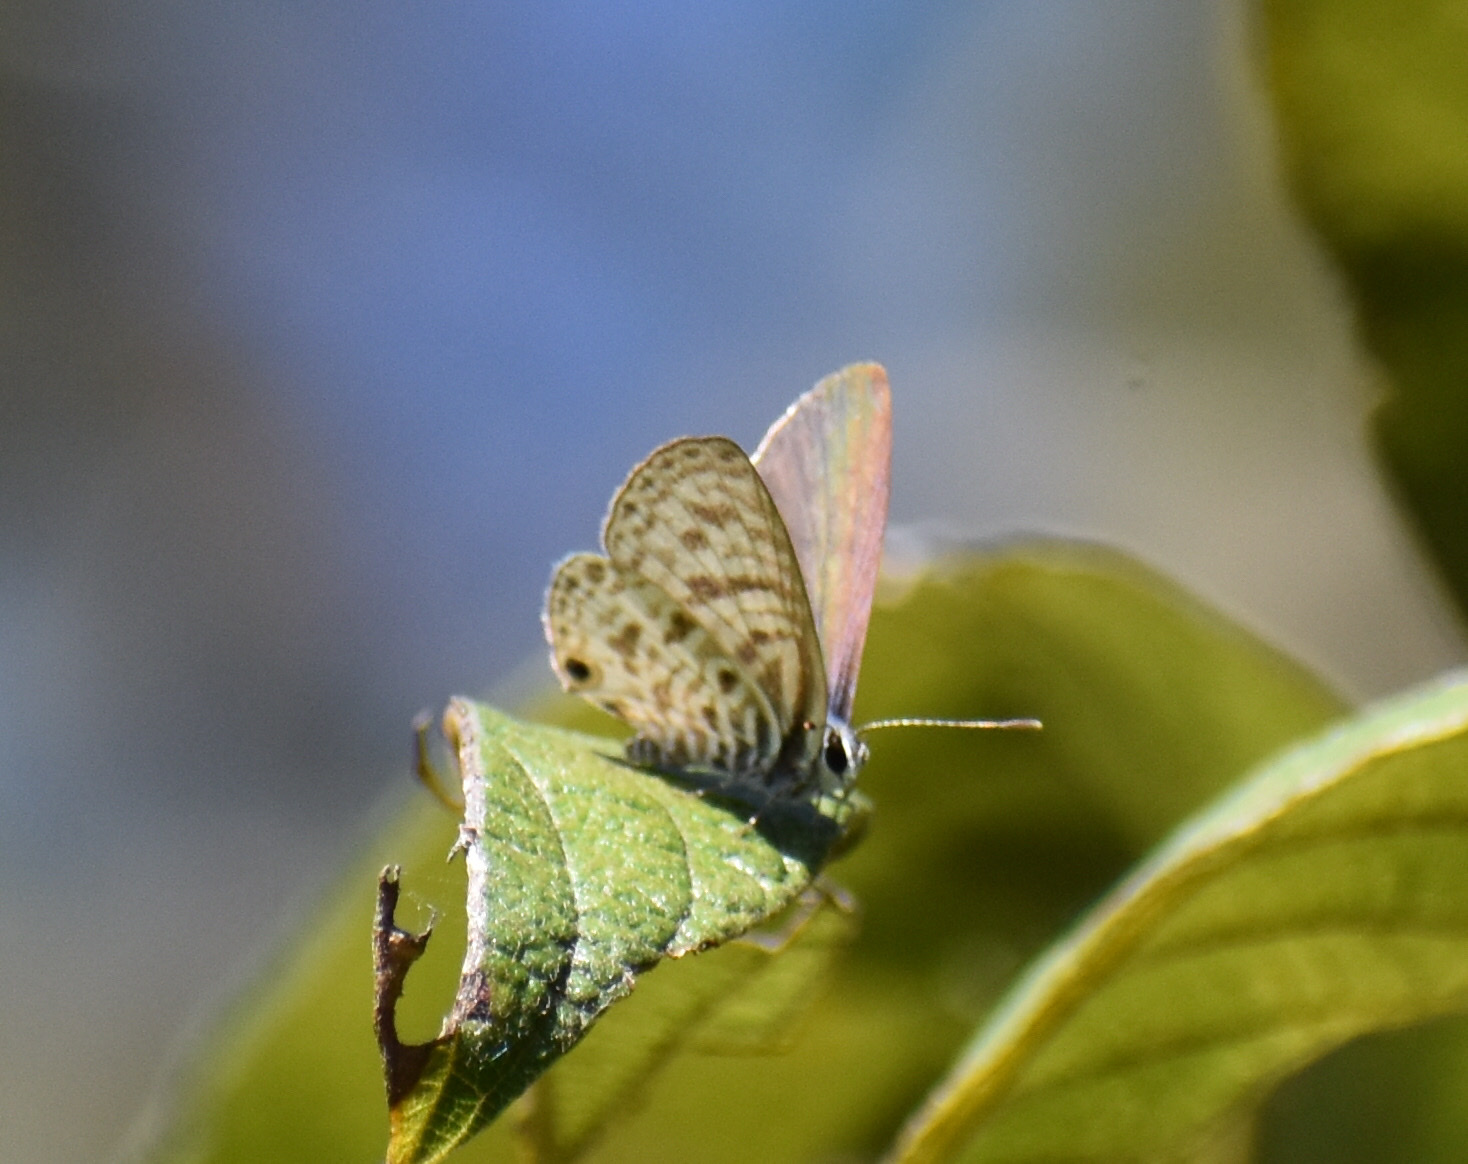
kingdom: Animalia
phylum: Arthropoda
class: Insecta
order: Lepidoptera
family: Lycaenidae
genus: Leptotes
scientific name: Leptotes
